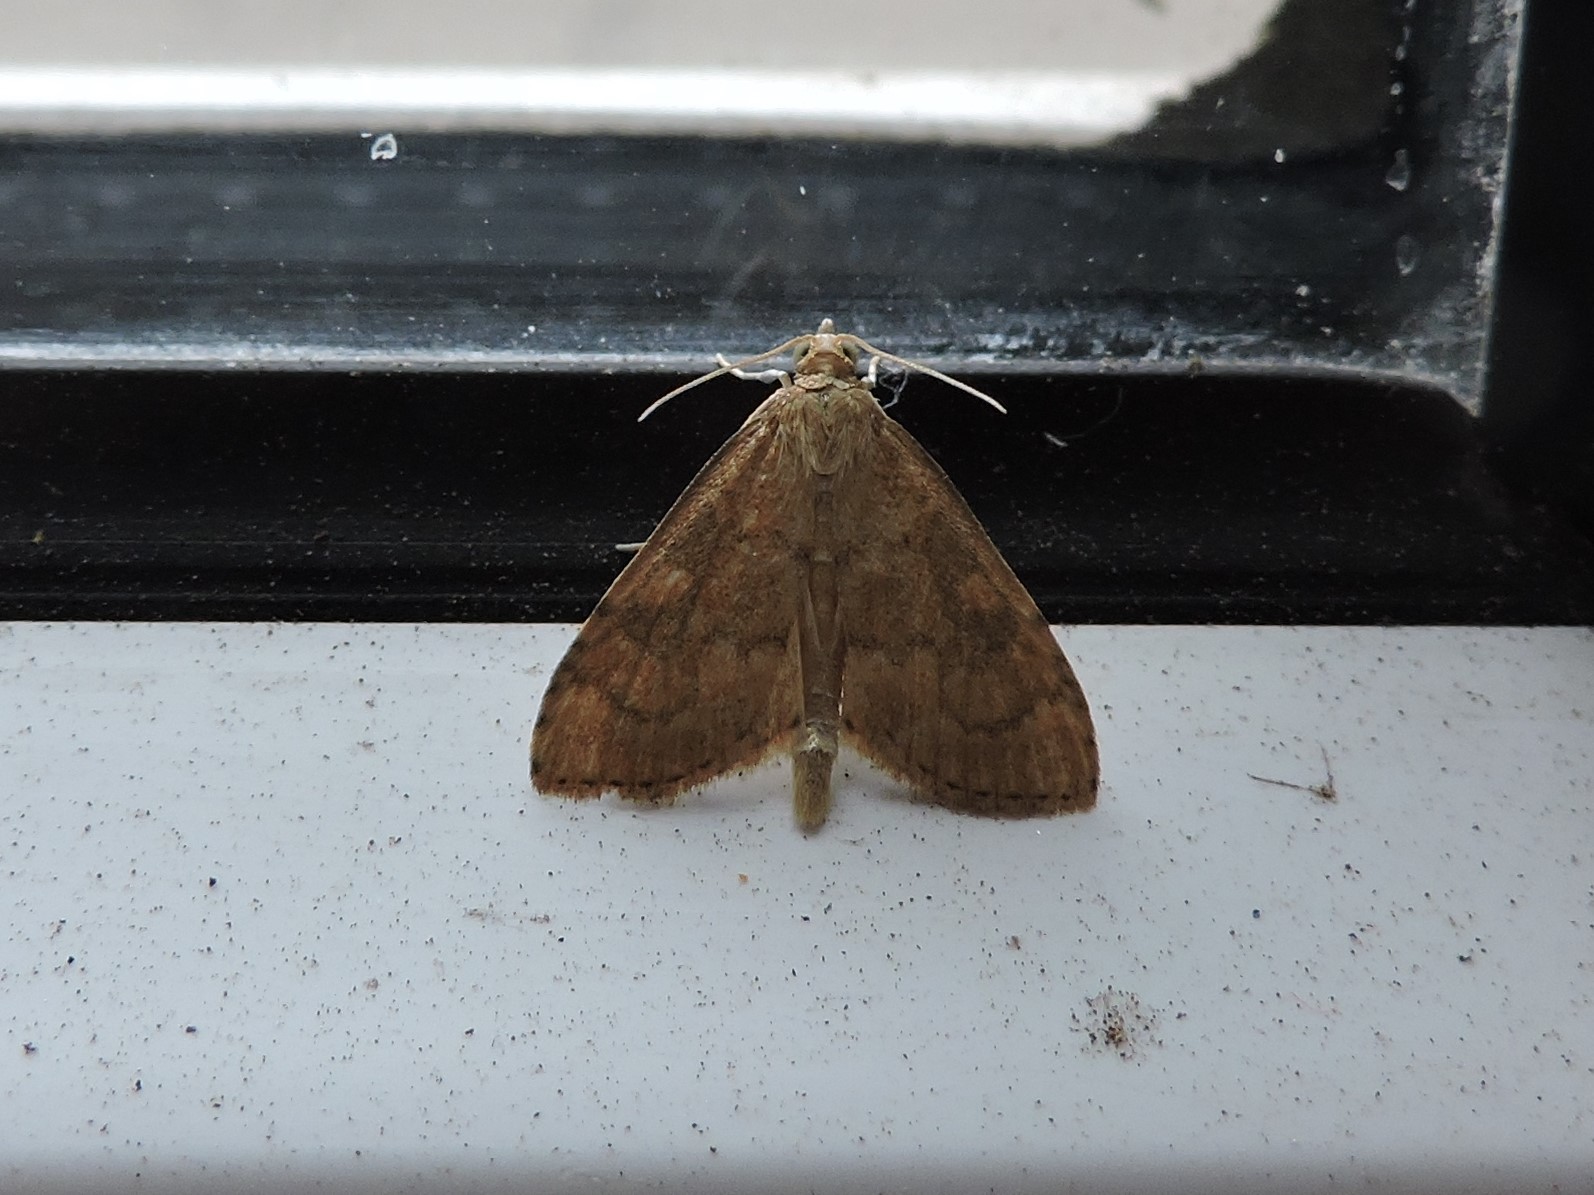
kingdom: Animalia
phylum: Arthropoda
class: Insecta
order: Lepidoptera
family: Crambidae
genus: Udea
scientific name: Udea fulvalis
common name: Fulvous pearl
